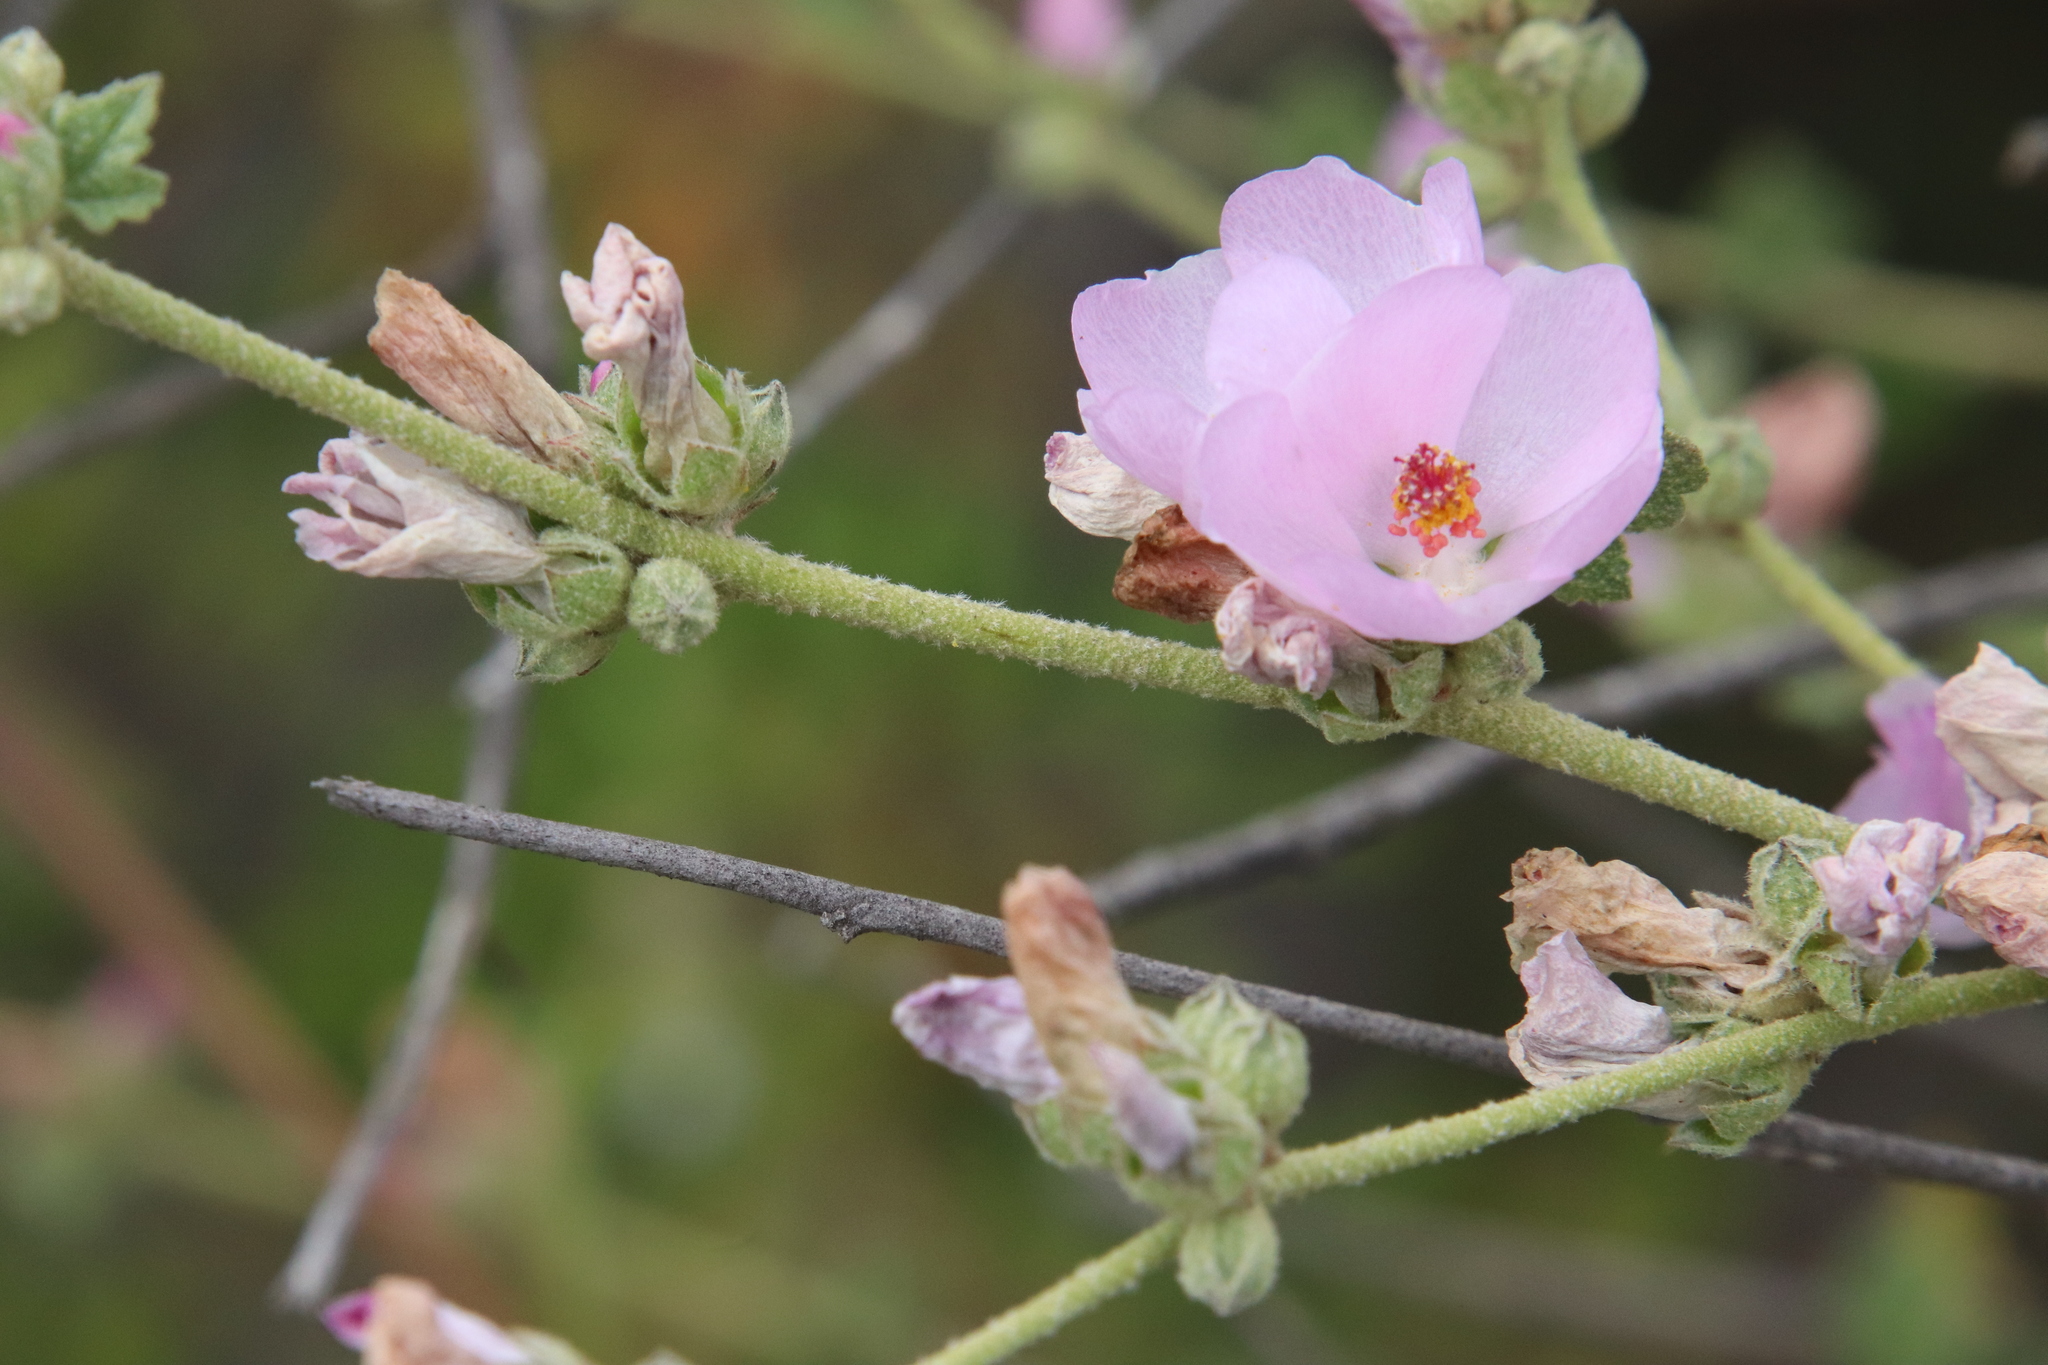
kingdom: Plantae
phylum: Tracheophyta
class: Magnoliopsida
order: Malvales
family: Malvaceae
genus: Malacothamnus
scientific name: Malacothamnus fasciculatus
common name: Sant cruz island bush-mallow
